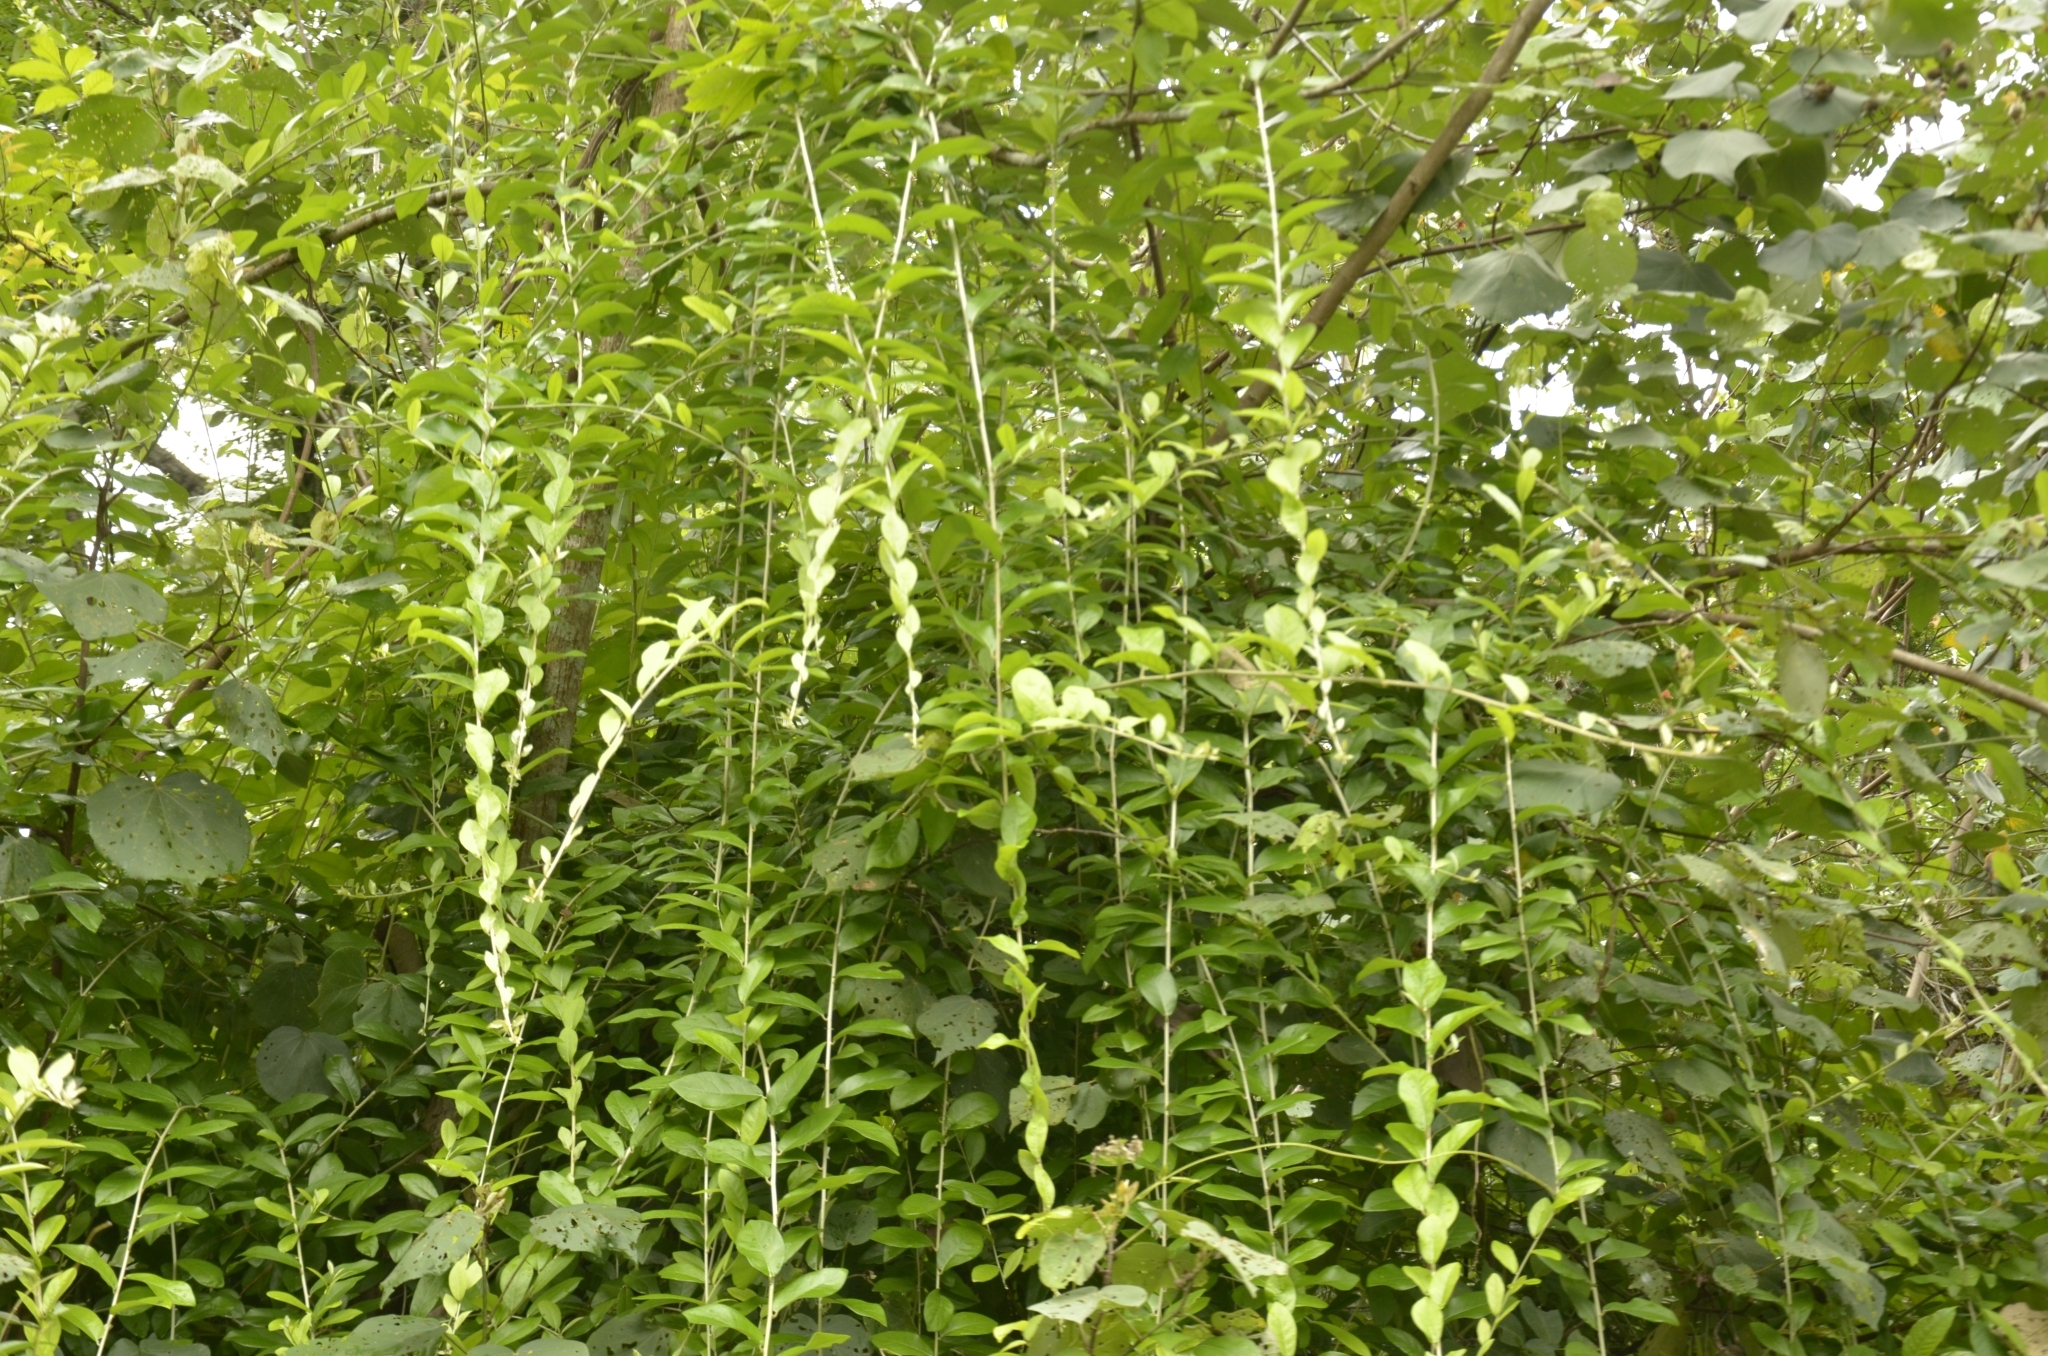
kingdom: Plantae
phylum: Tracheophyta
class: Magnoliopsida
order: Asterales
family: Asteraceae
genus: Tarlmounia
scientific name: Tarlmounia elliptica
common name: Kheua sa lot
